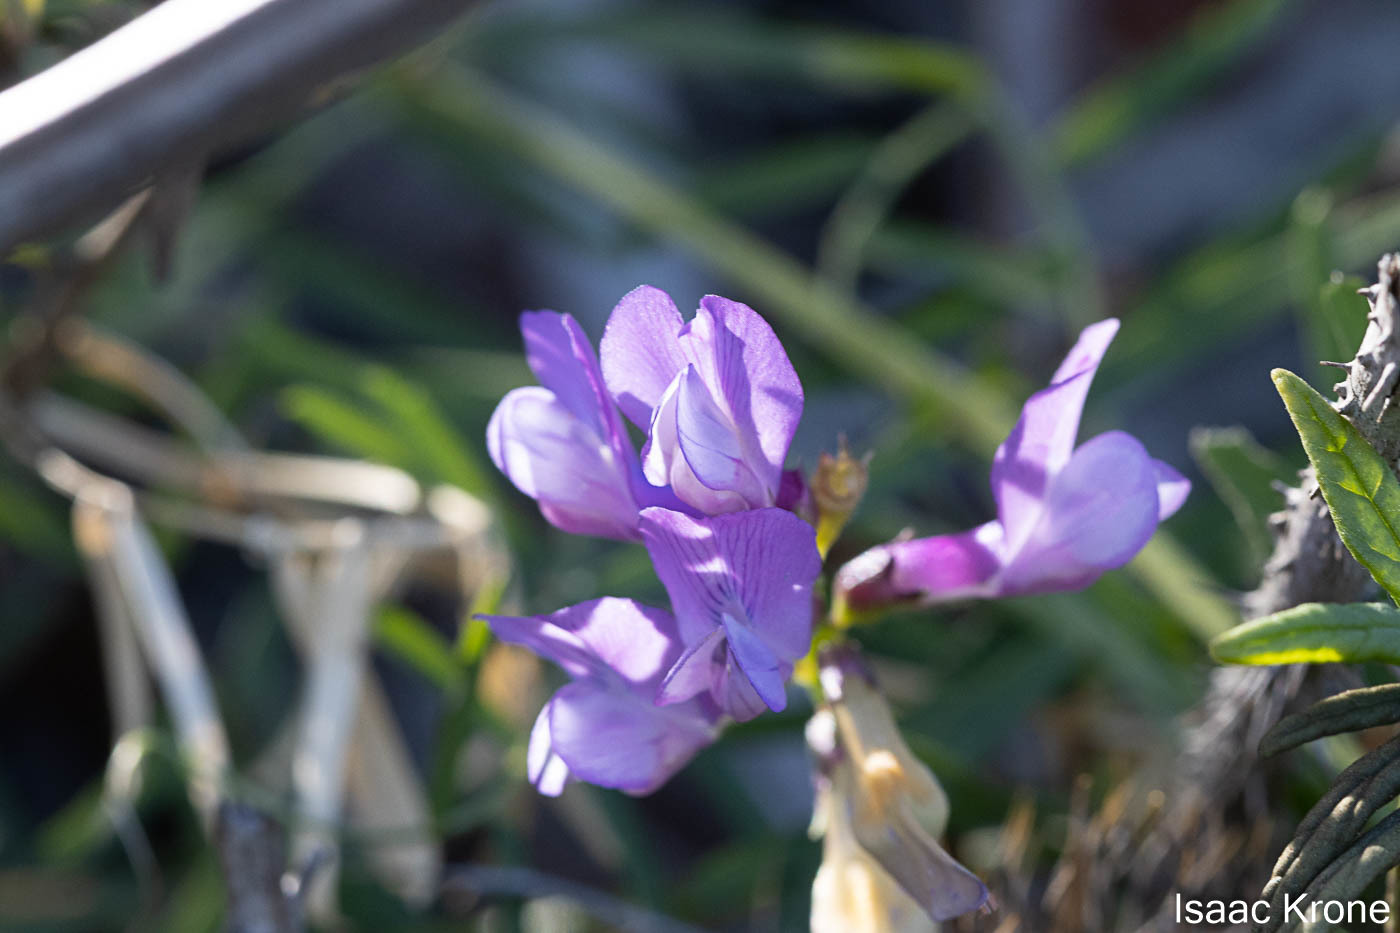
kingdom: Plantae
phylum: Tracheophyta
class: Magnoliopsida
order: Fabales
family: Fabaceae
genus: Vicia
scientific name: Vicia americana
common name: American vetch
